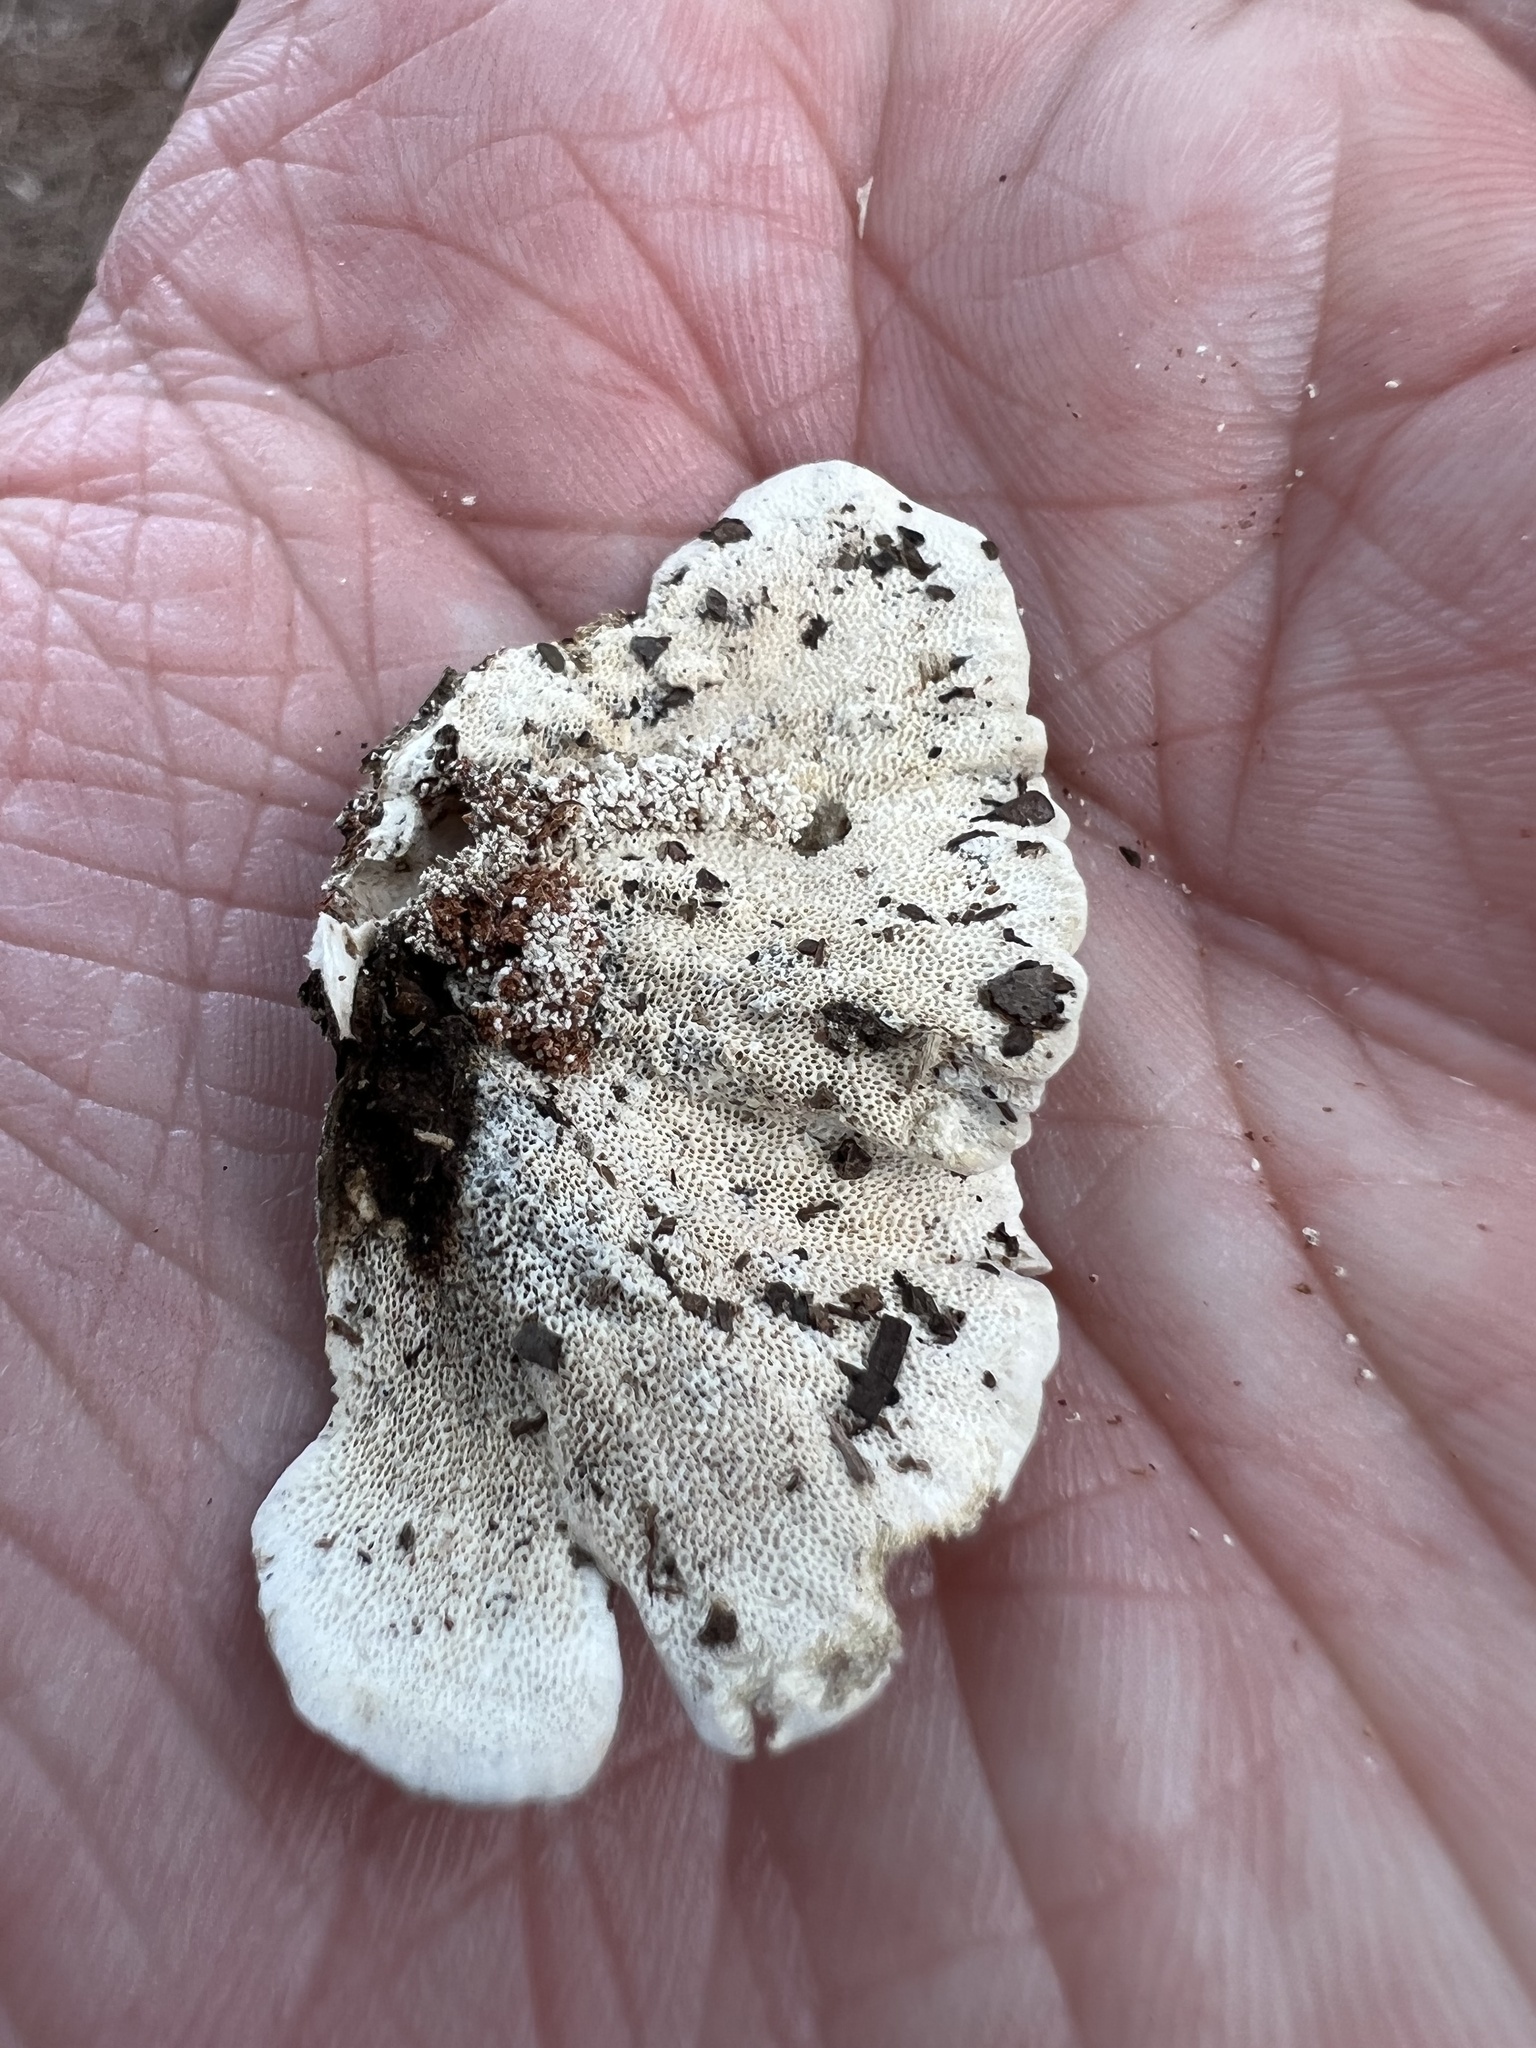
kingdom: Fungi
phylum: Basidiomycota
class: Agaricomycetes
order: Polyporales
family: Polyporaceae
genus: Trametes
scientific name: Trametes versicolor
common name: Turkeytail
